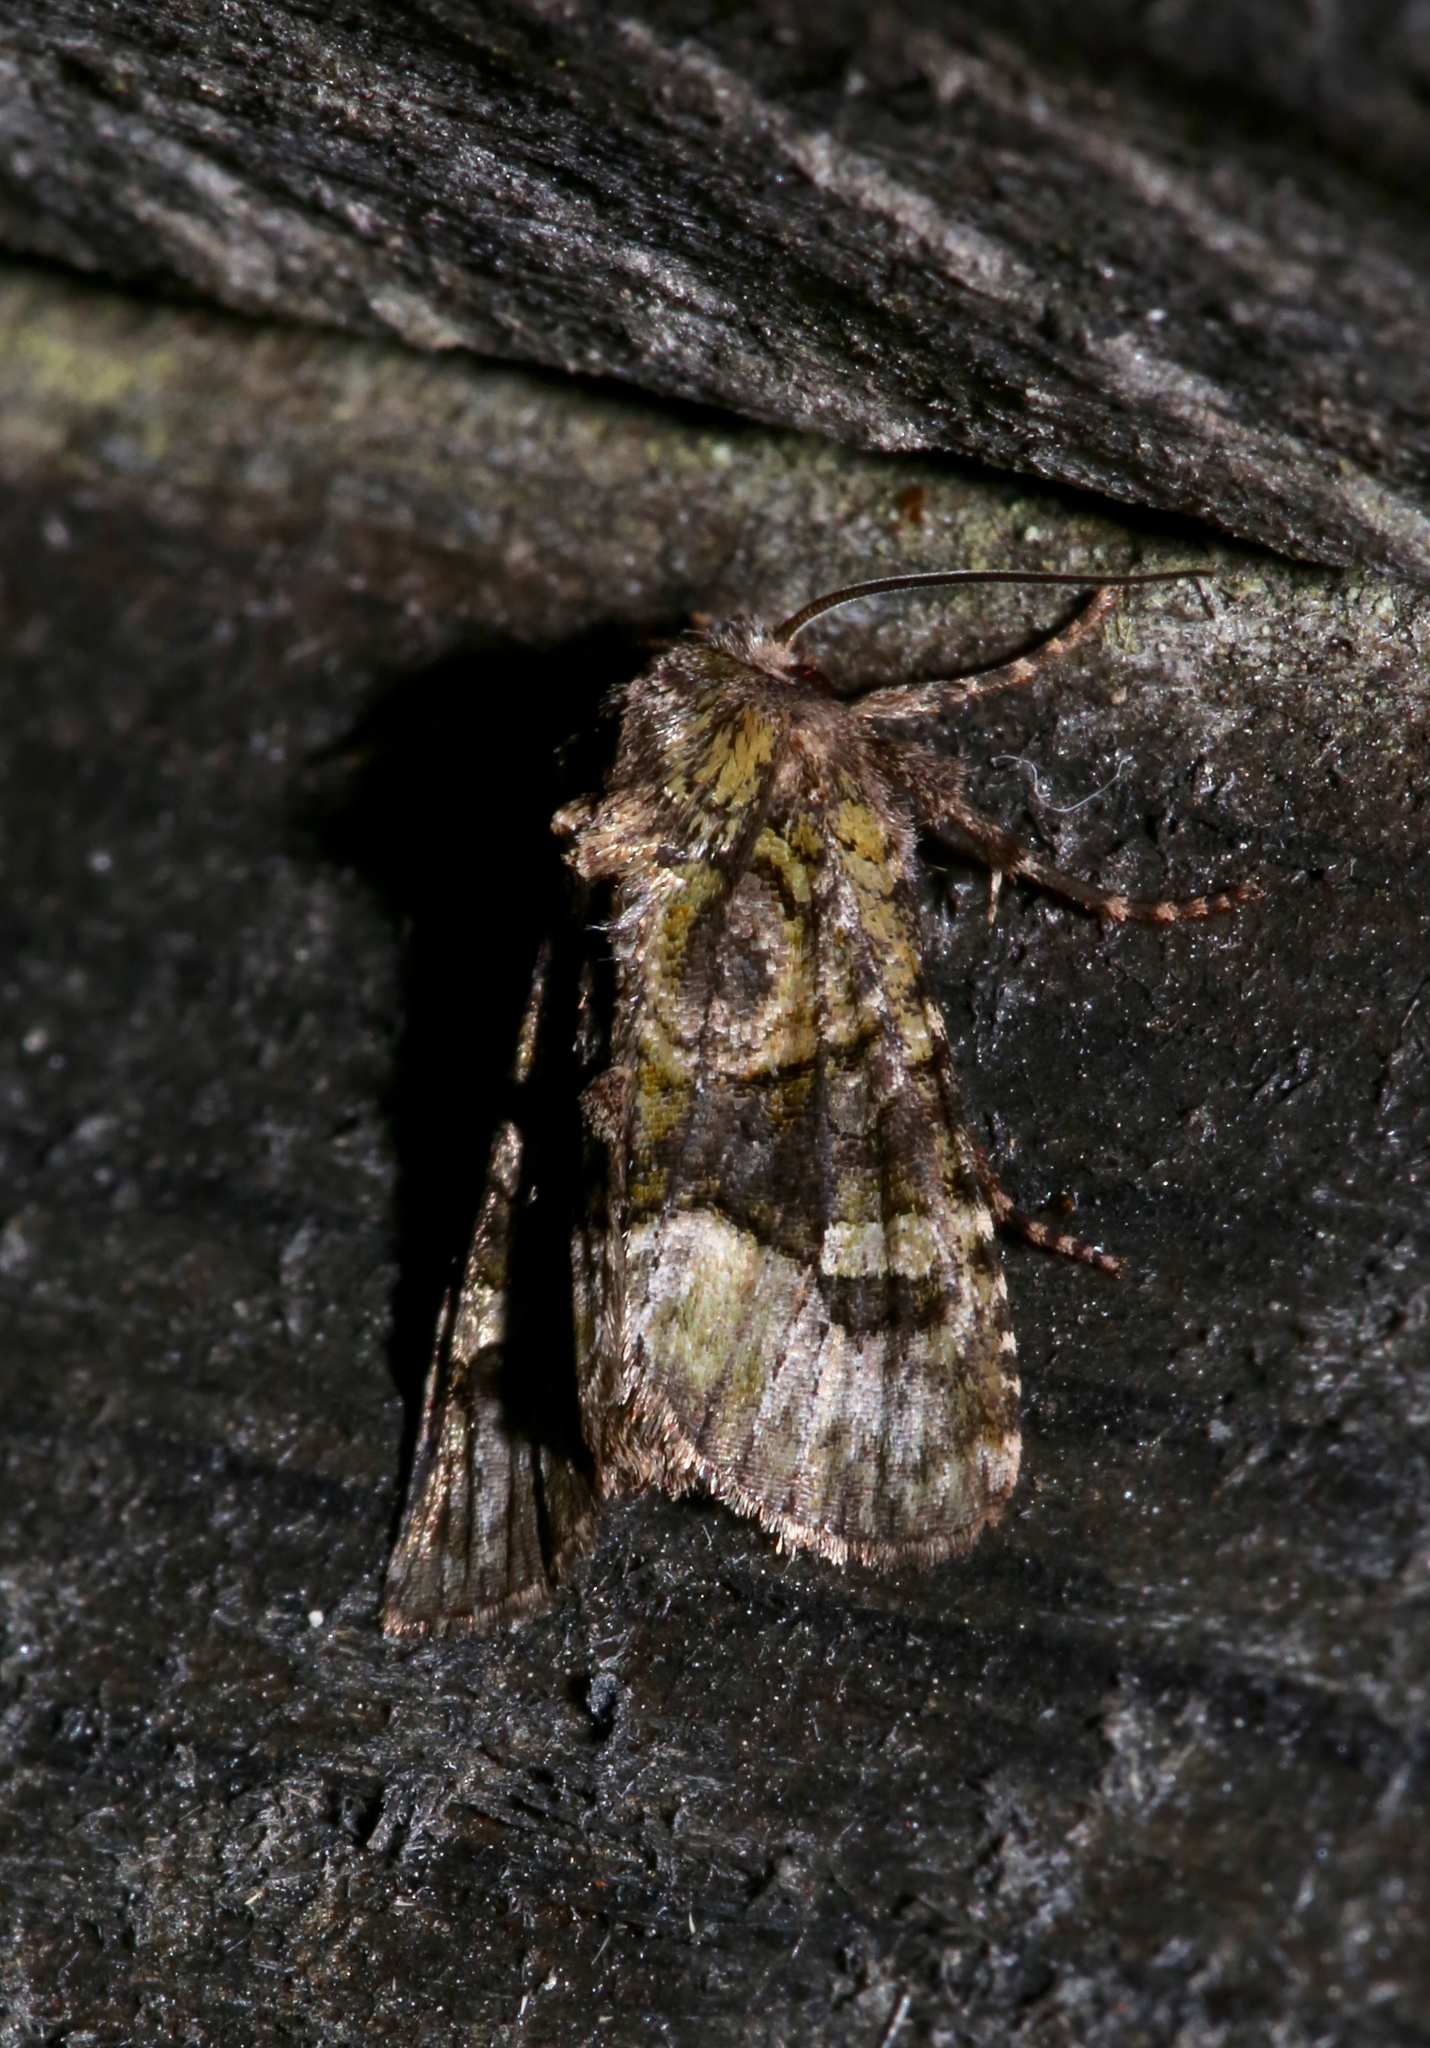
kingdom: Animalia
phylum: Arthropoda
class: Insecta
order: Lepidoptera
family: Noctuidae
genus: Lacinipolia
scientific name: Lacinipolia olivacea
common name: Olive arches moth
